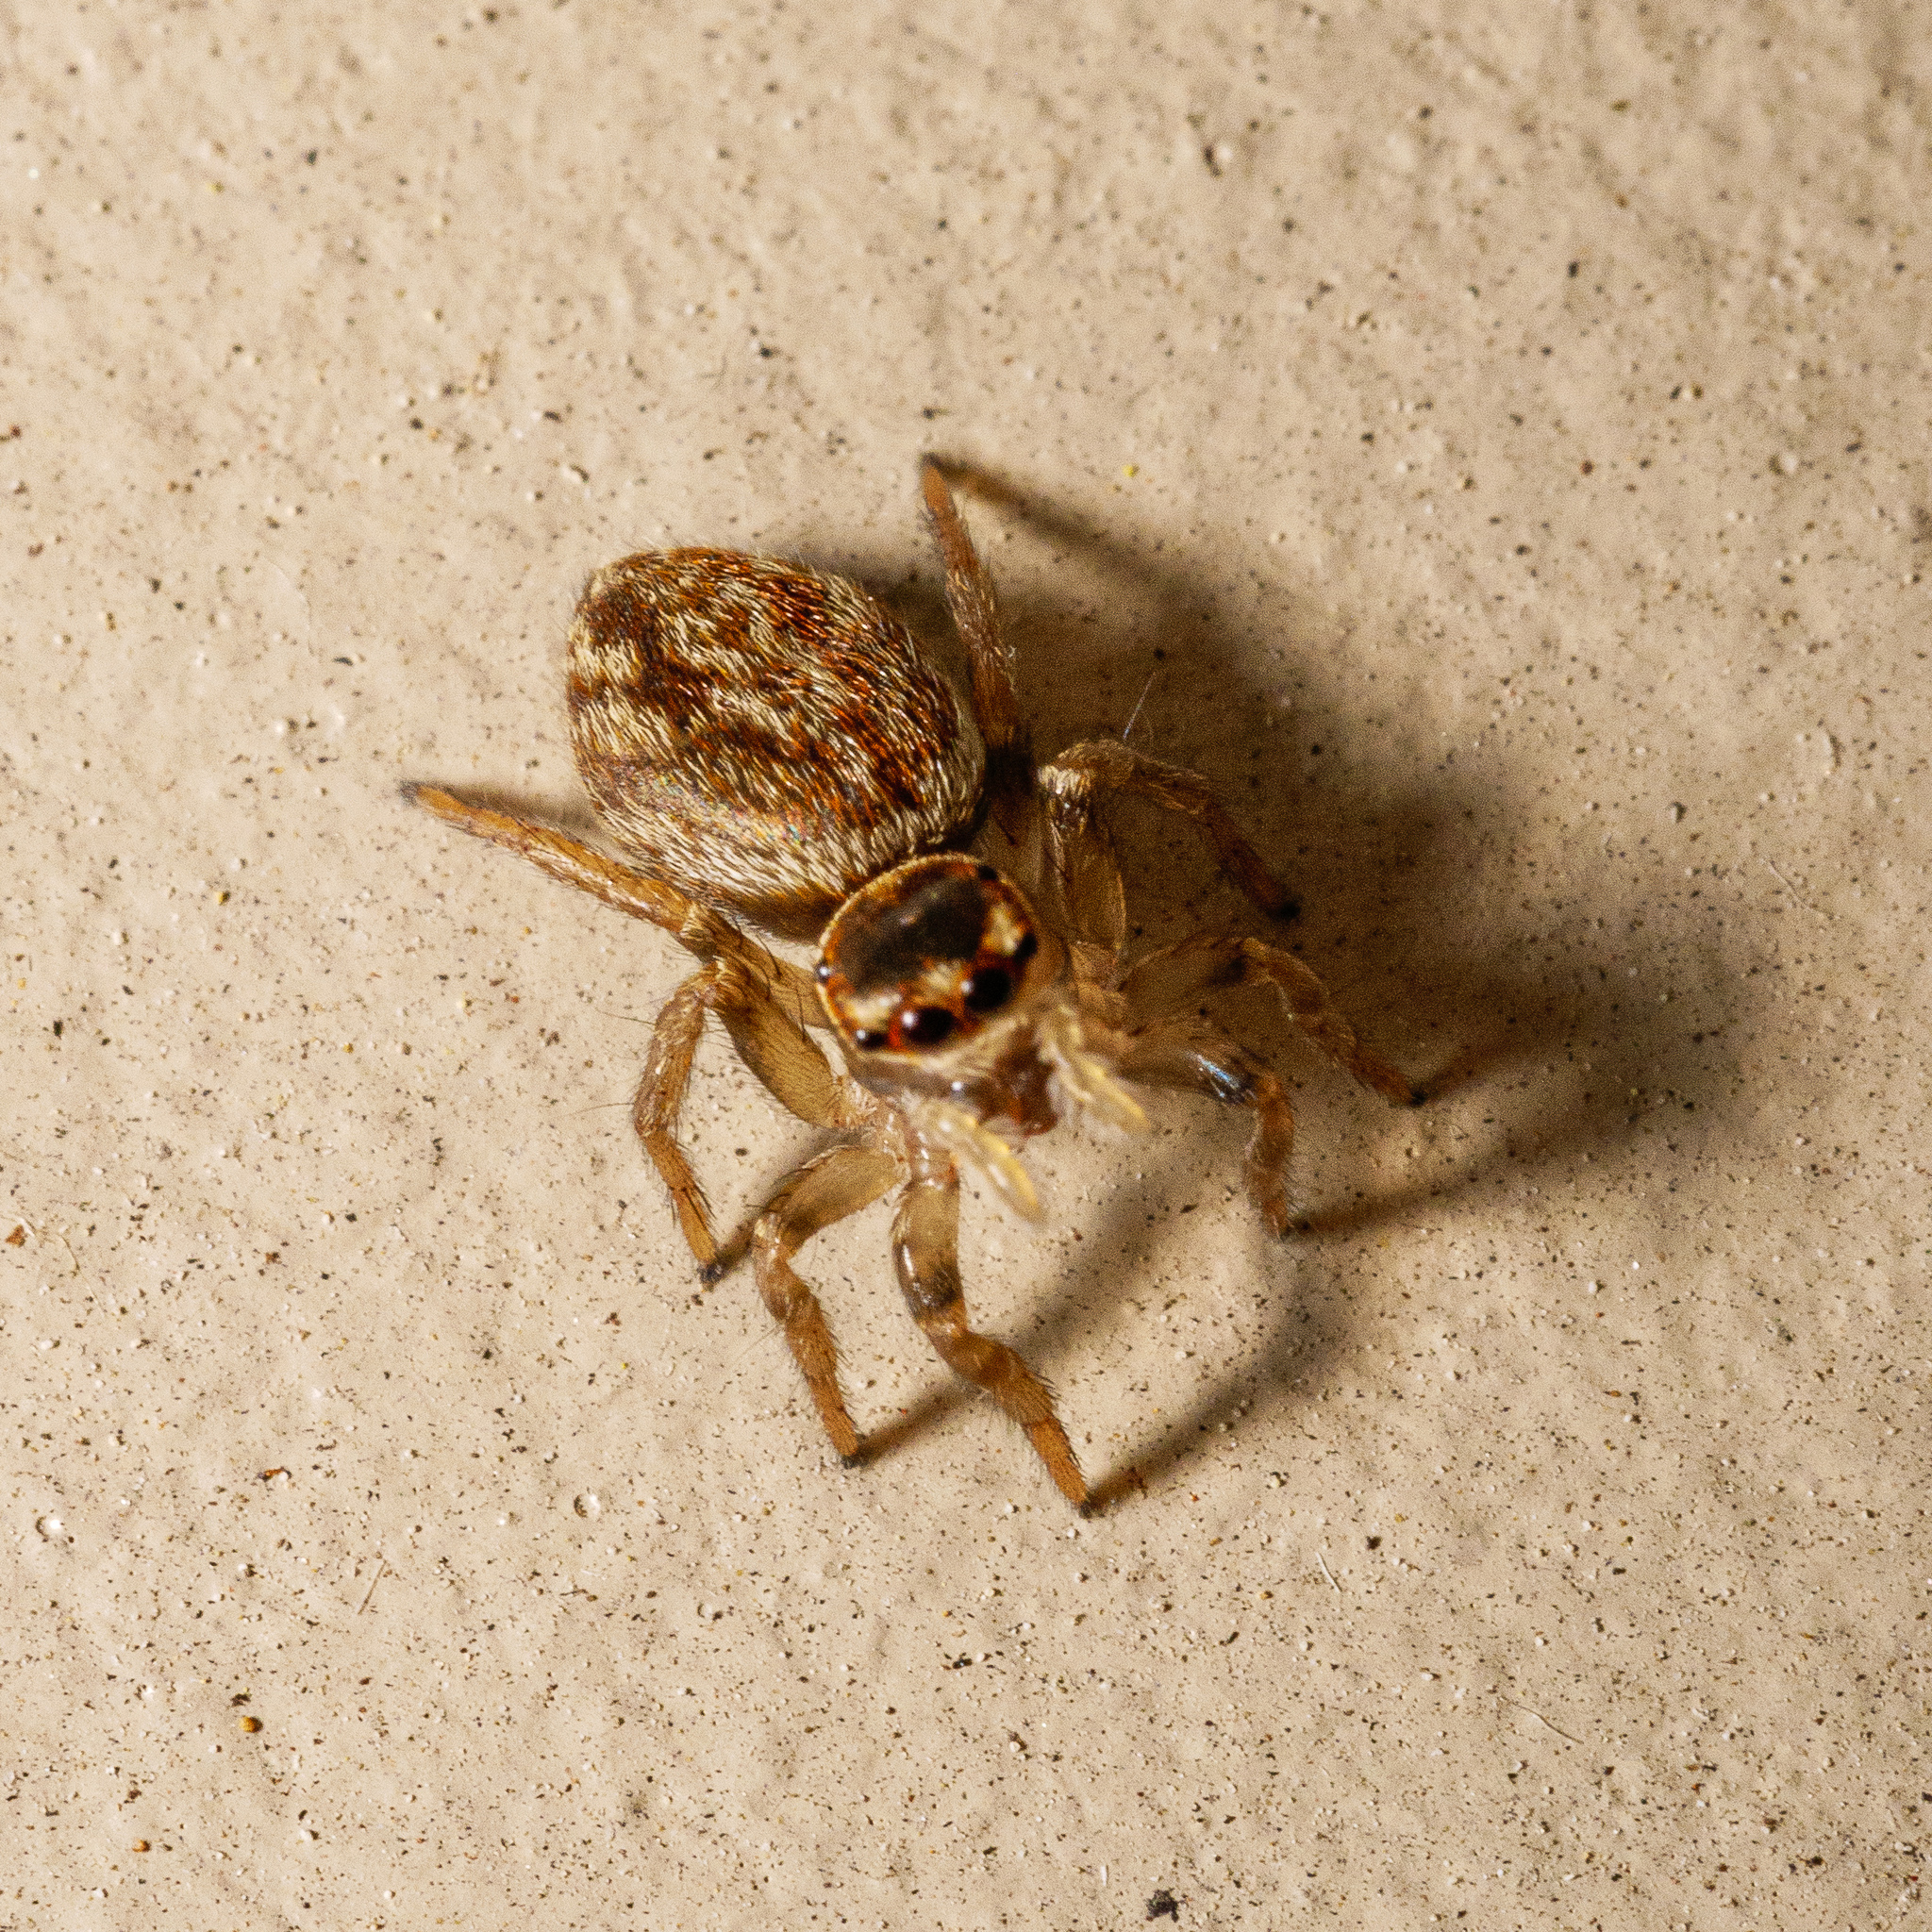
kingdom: Animalia
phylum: Arthropoda
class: Arachnida
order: Araneae
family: Salticidae
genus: Maratus
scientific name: Maratus griseus
